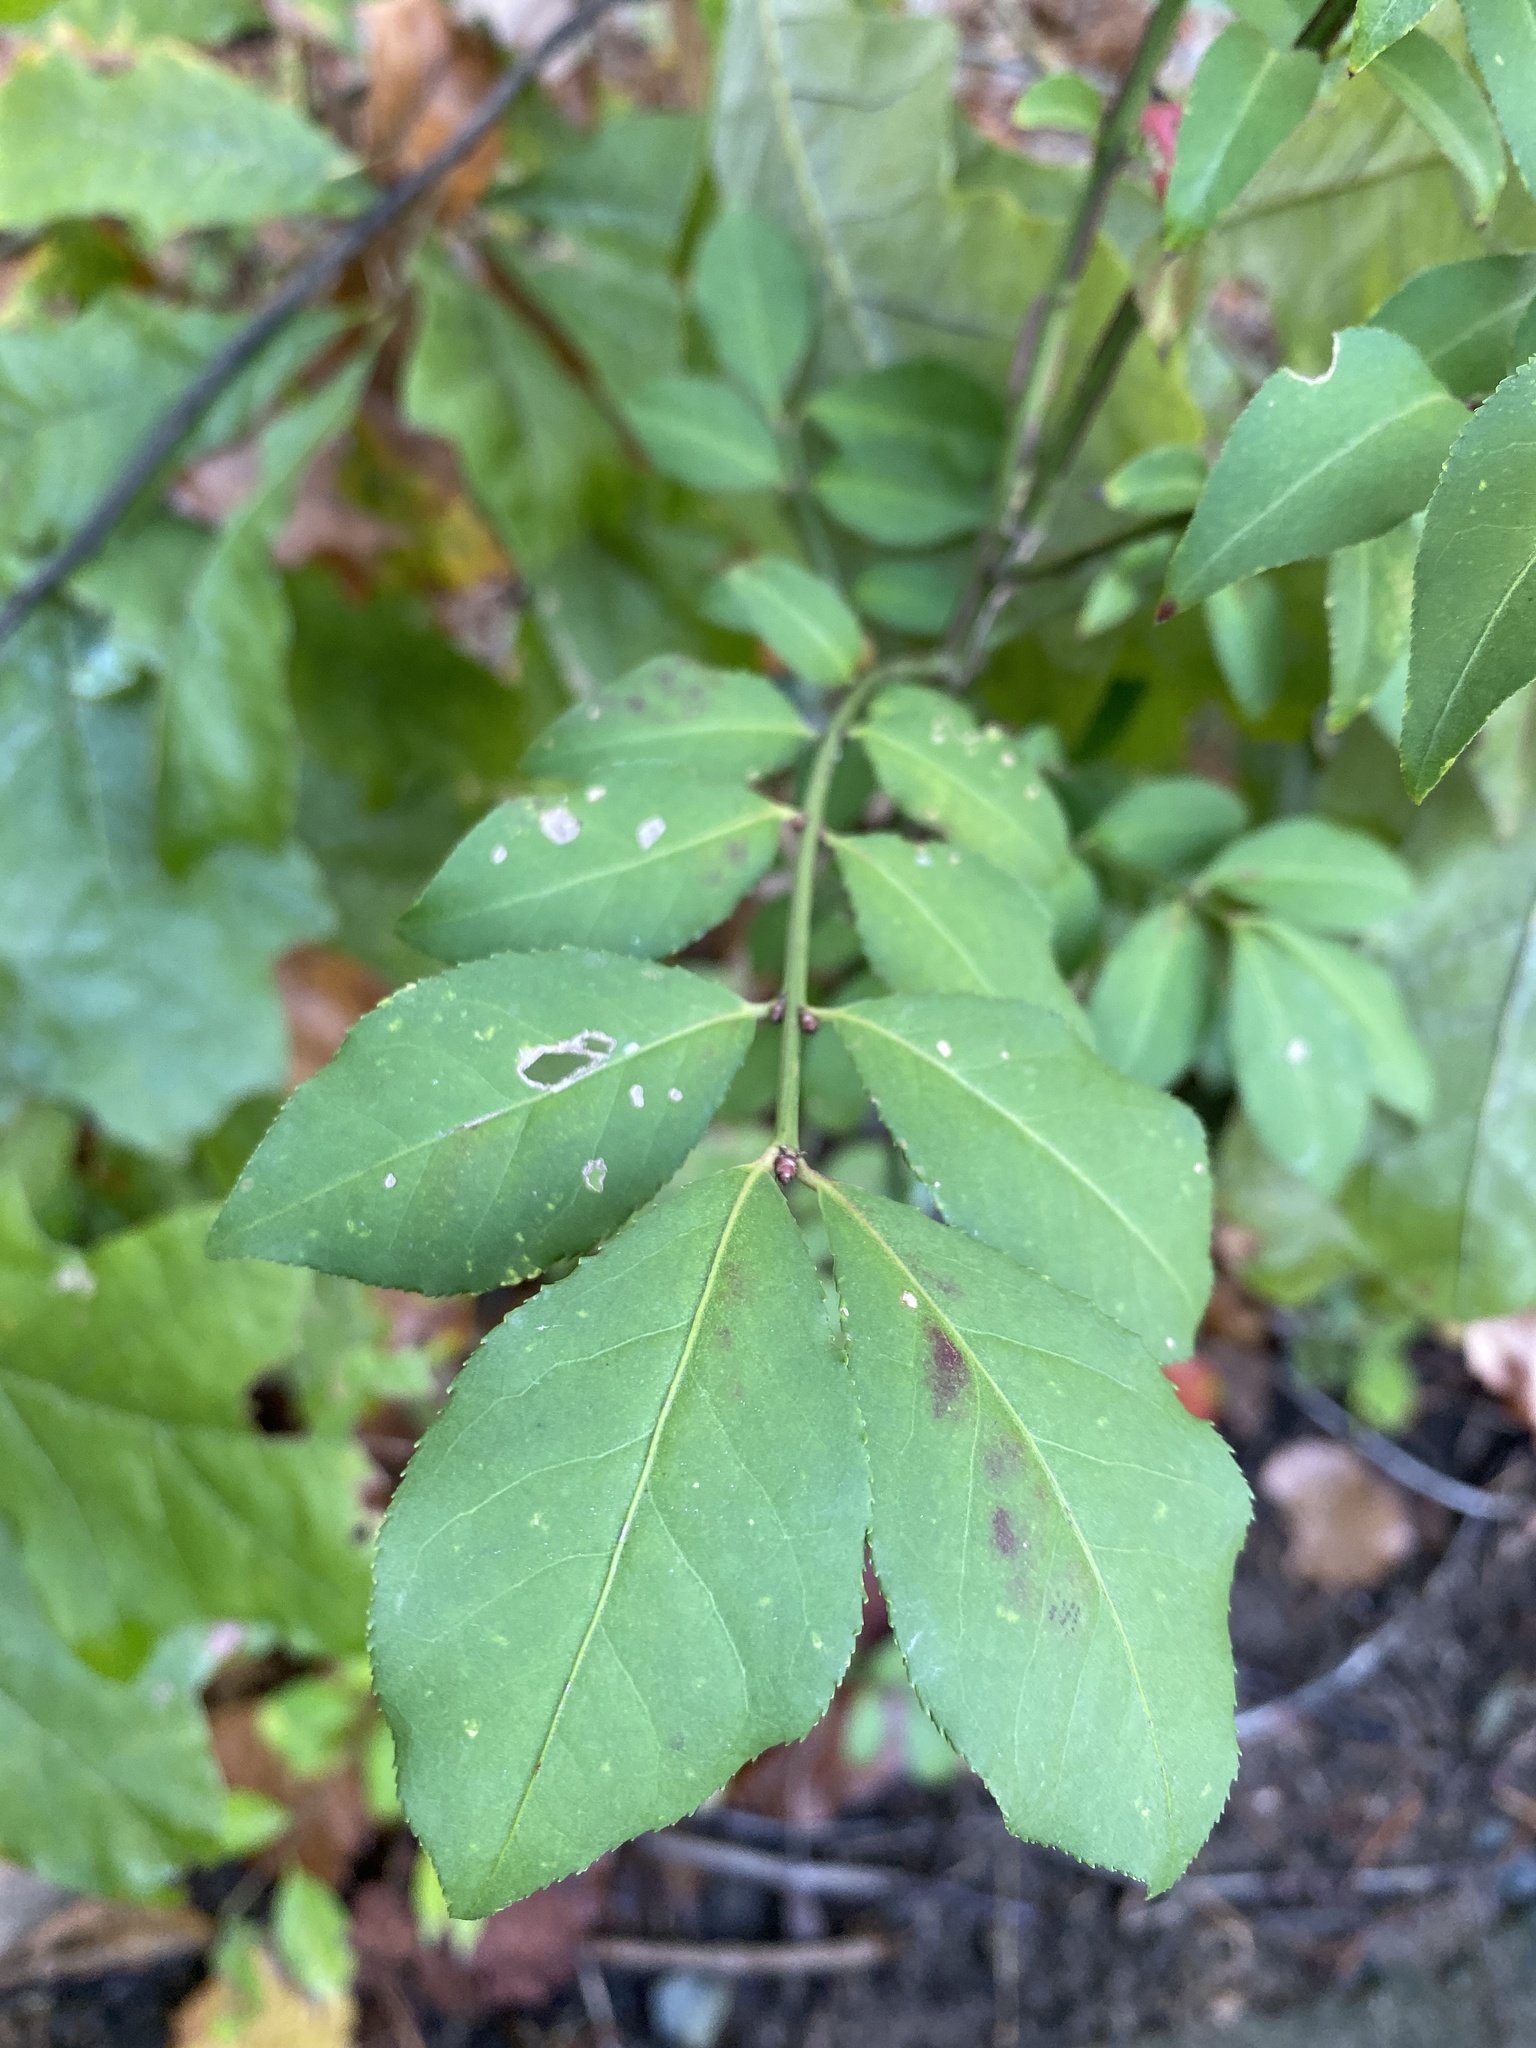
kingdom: Plantae
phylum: Tracheophyta
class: Magnoliopsida
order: Celastrales
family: Celastraceae
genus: Euonymus
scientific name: Euonymus alatus
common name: Winged euonymus
